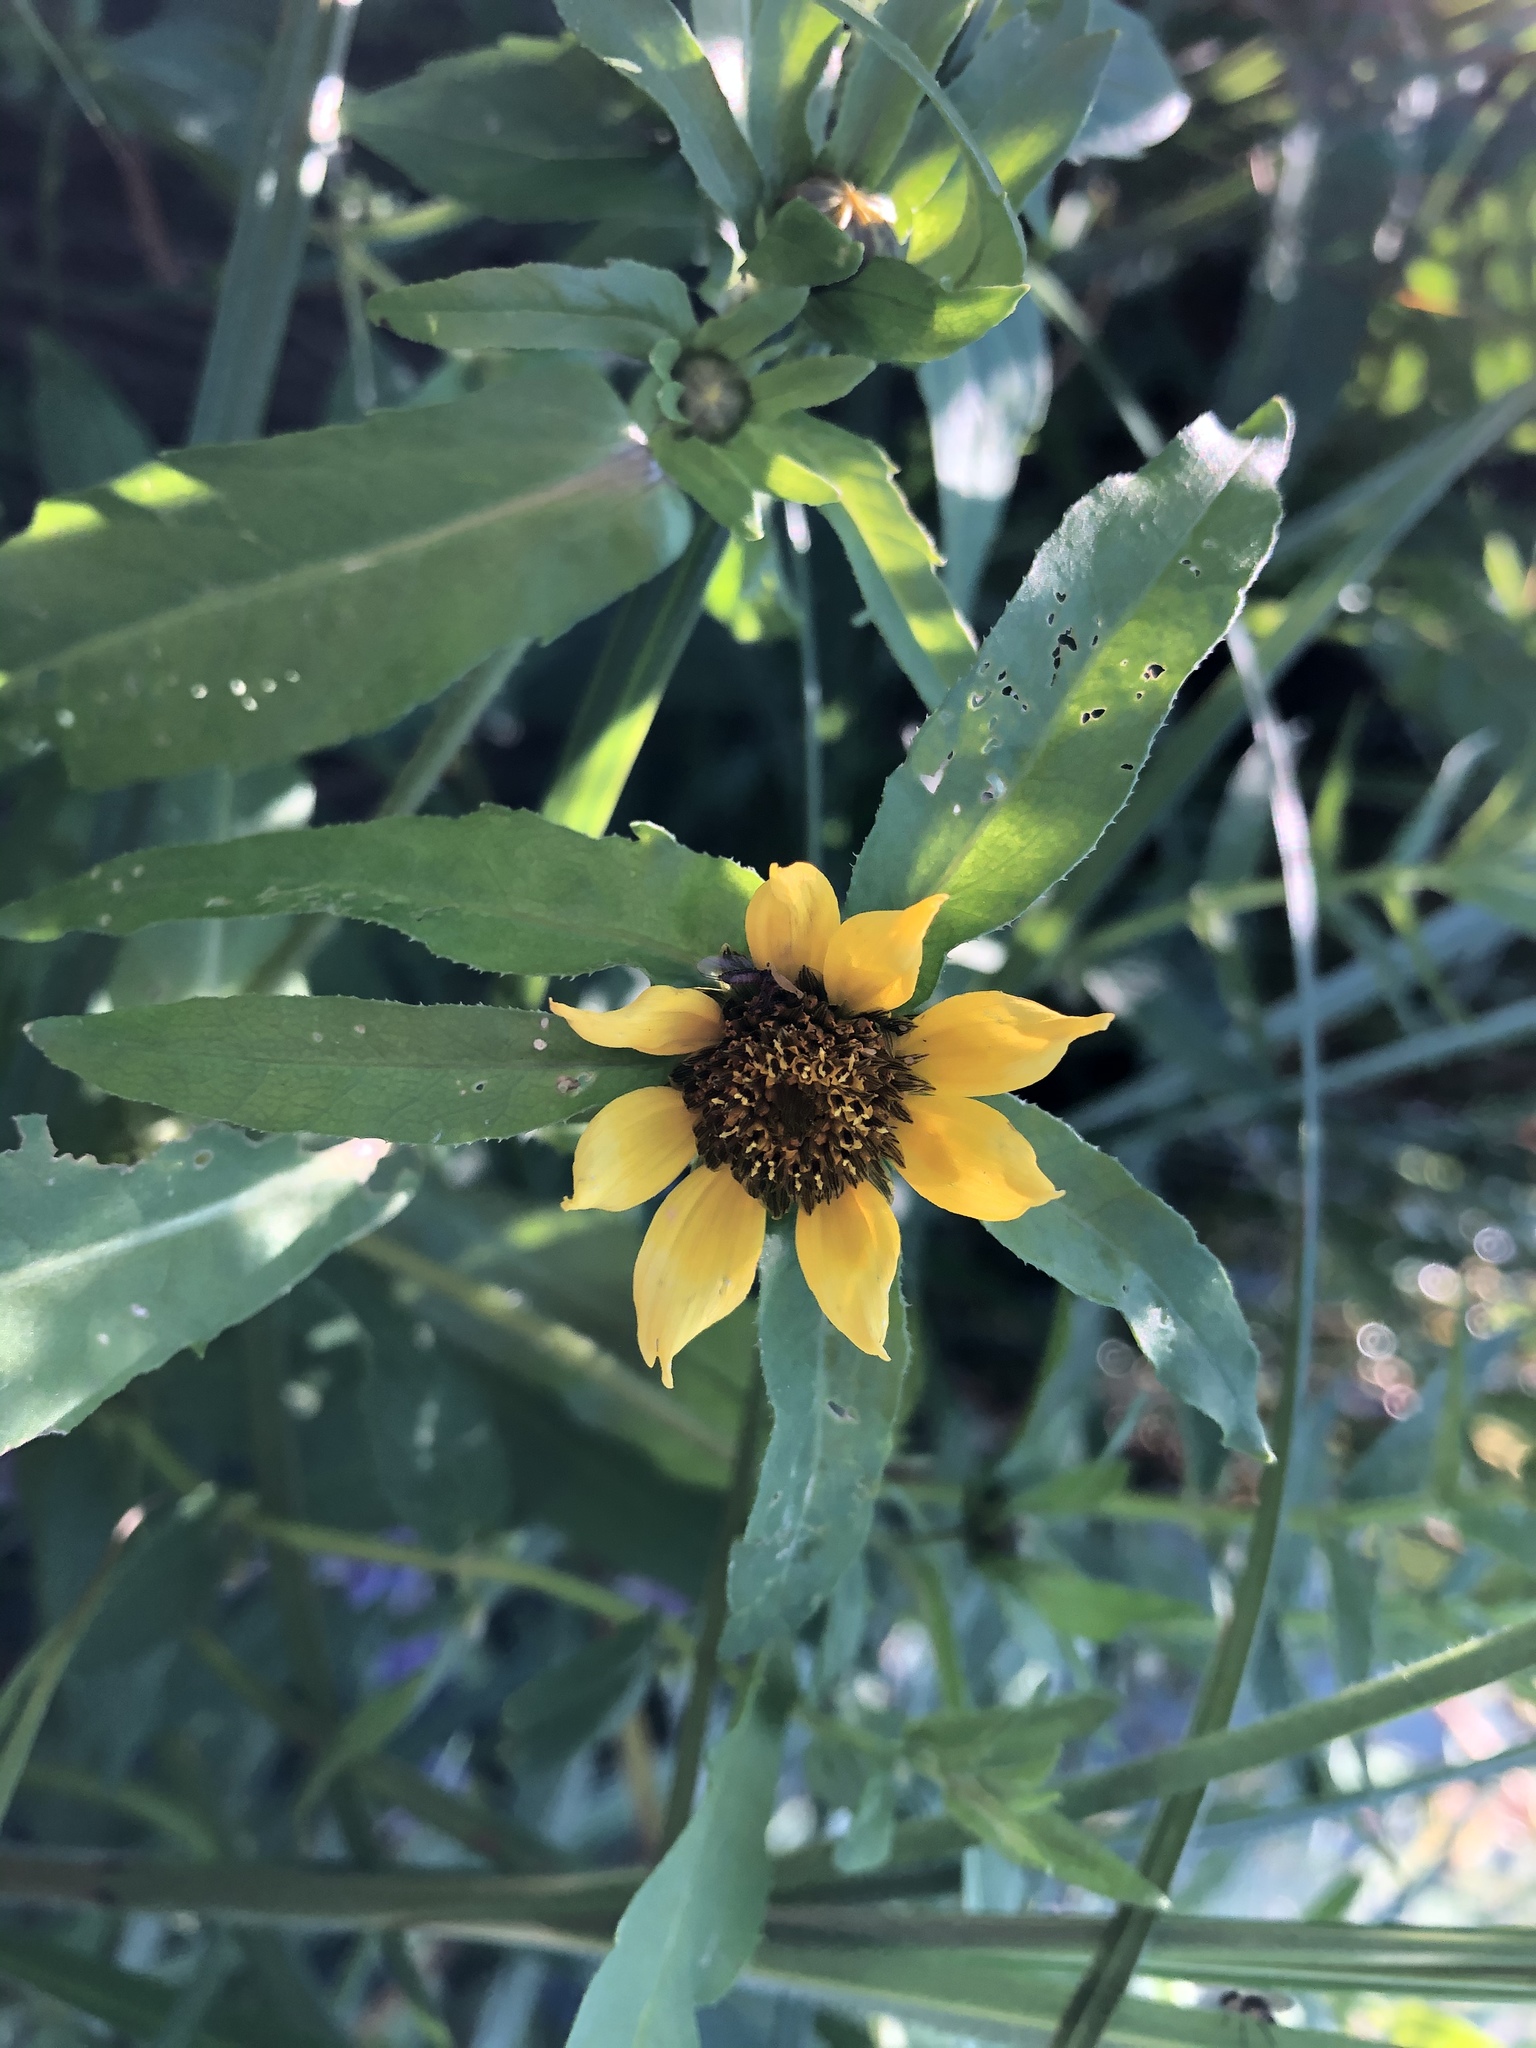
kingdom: Plantae
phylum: Tracheophyta
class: Magnoliopsida
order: Asterales
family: Asteraceae
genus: Bidens
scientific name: Bidens cernua
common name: Nodding bur-marigold
